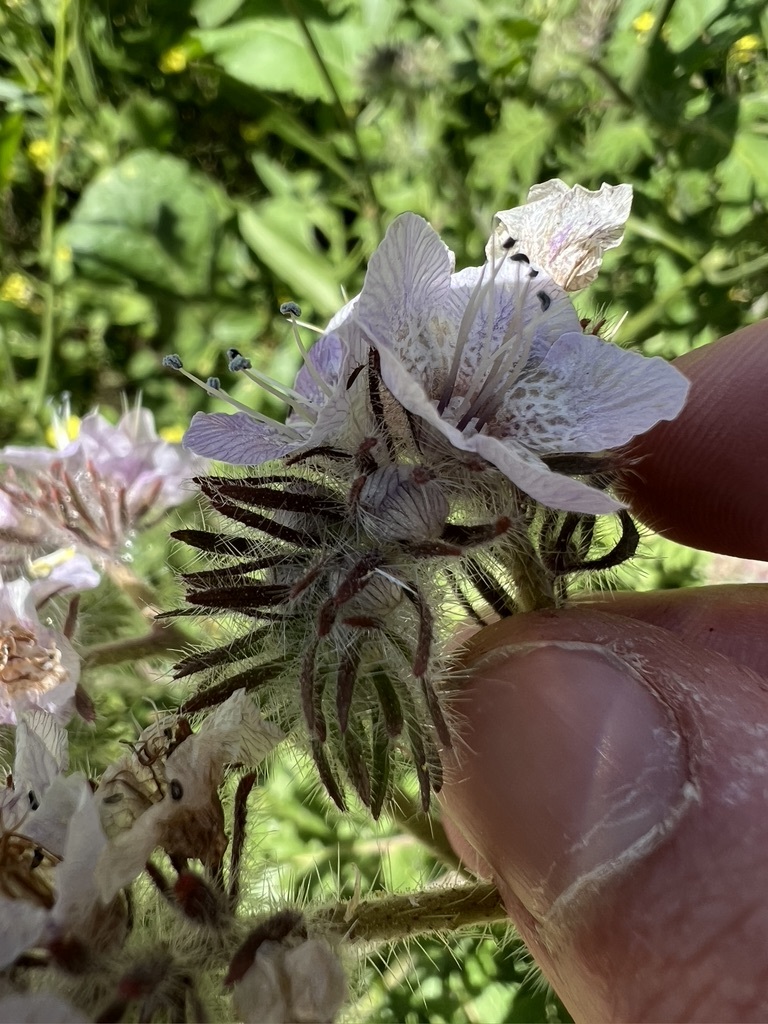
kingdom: Plantae
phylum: Tracheophyta
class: Magnoliopsida
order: Boraginales
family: Hydrophyllaceae
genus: Phacelia
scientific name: Phacelia cicutaria
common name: Caterpillar phacelia
